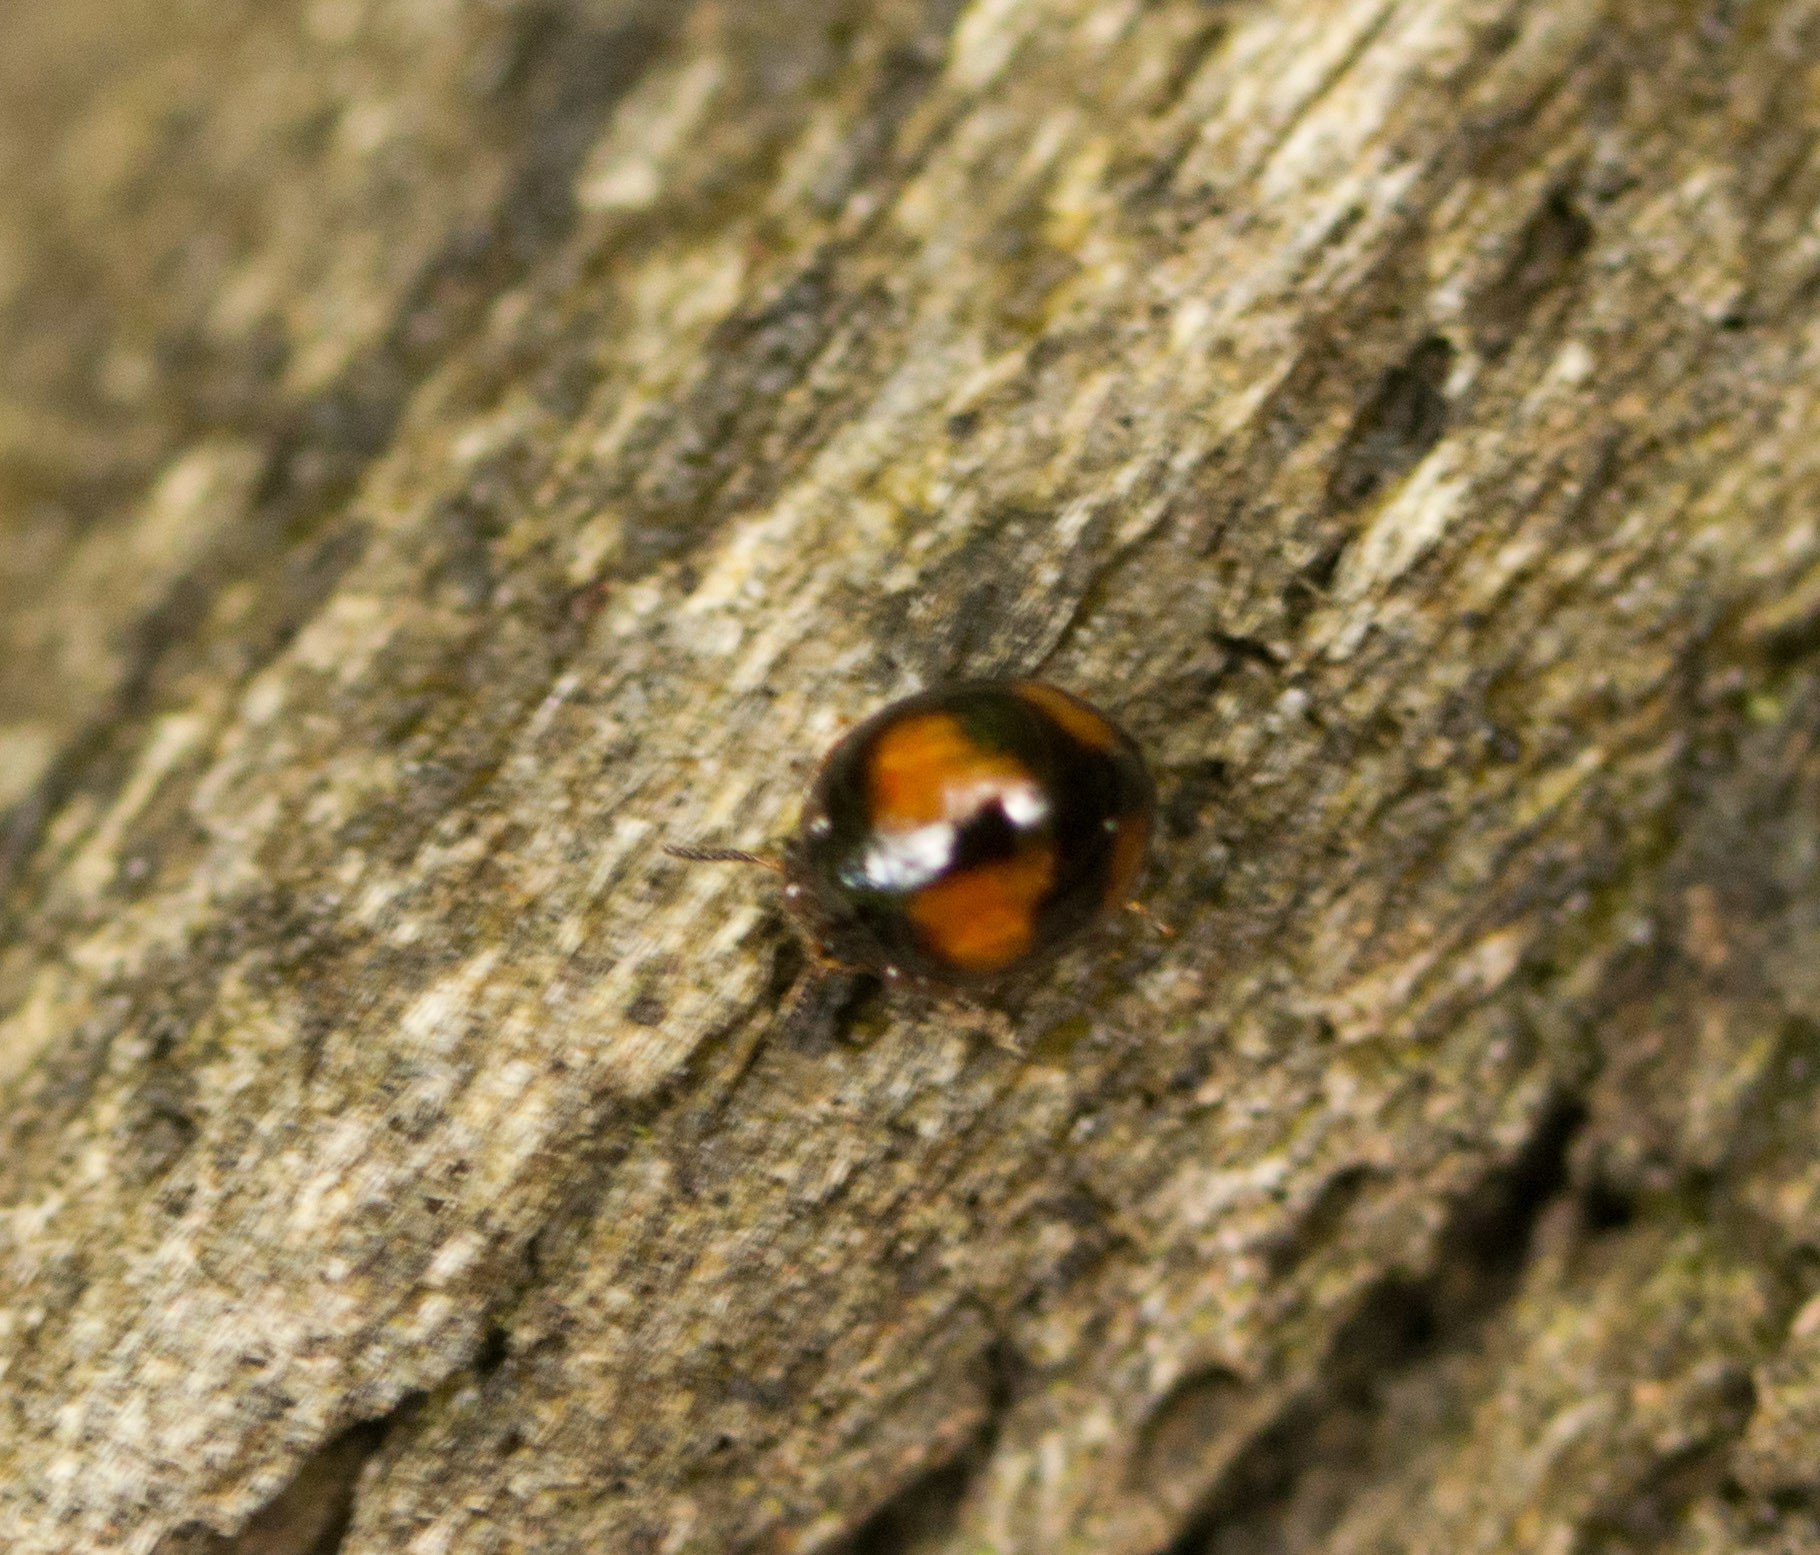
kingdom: Animalia
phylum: Arthropoda
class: Insecta
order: Coleoptera
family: Tenebrionidae
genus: Stethotrypes
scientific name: Stethotrypes
